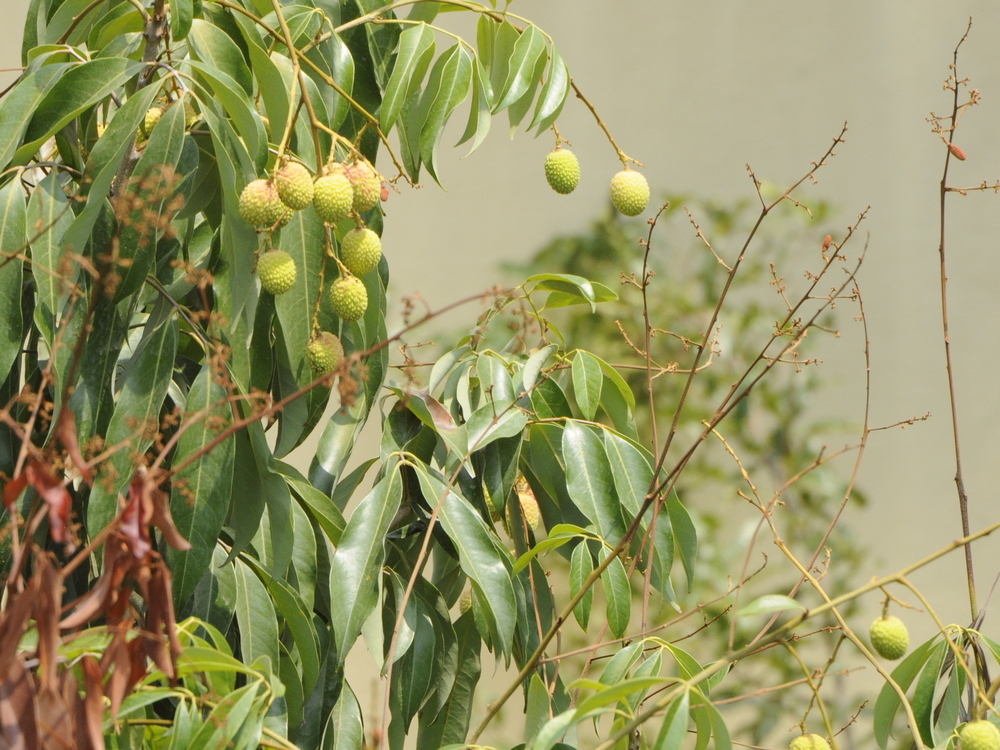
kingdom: Plantae
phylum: Tracheophyta
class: Magnoliopsida
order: Sapindales
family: Sapindaceae
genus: Litchi
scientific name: Litchi chinensis
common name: Litchi
